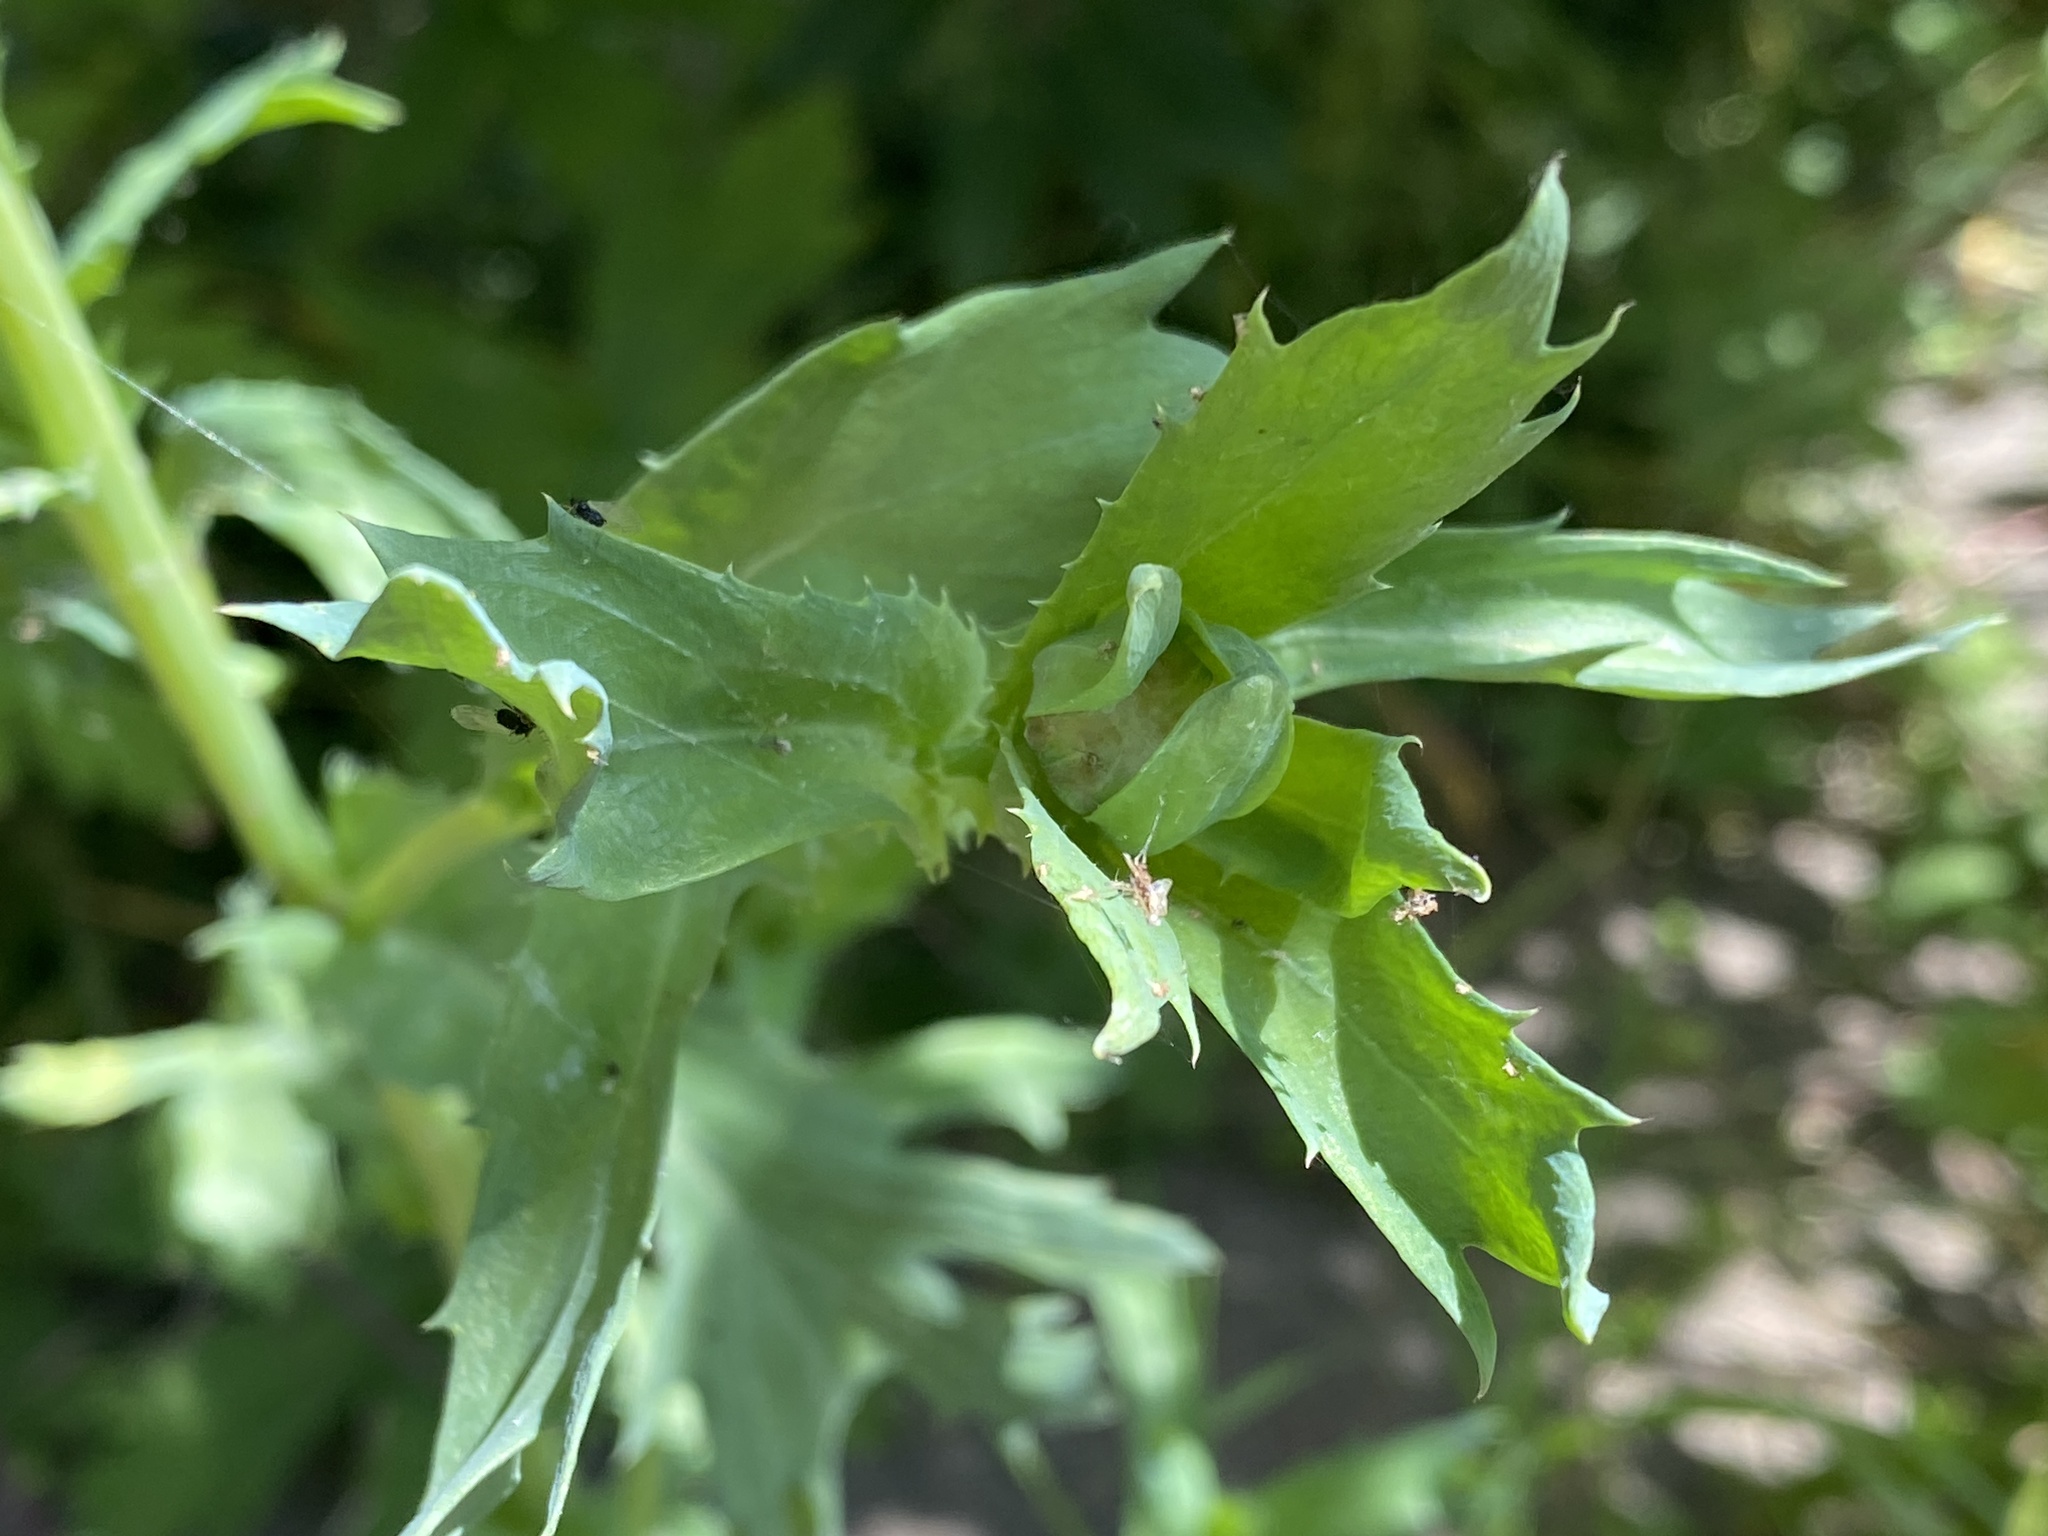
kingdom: Plantae
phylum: Tracheophyta
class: Magnoliopsida
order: Asterales
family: Asteraceae
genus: Glebionis
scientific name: Glebionis segetum
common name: Corndaisy
